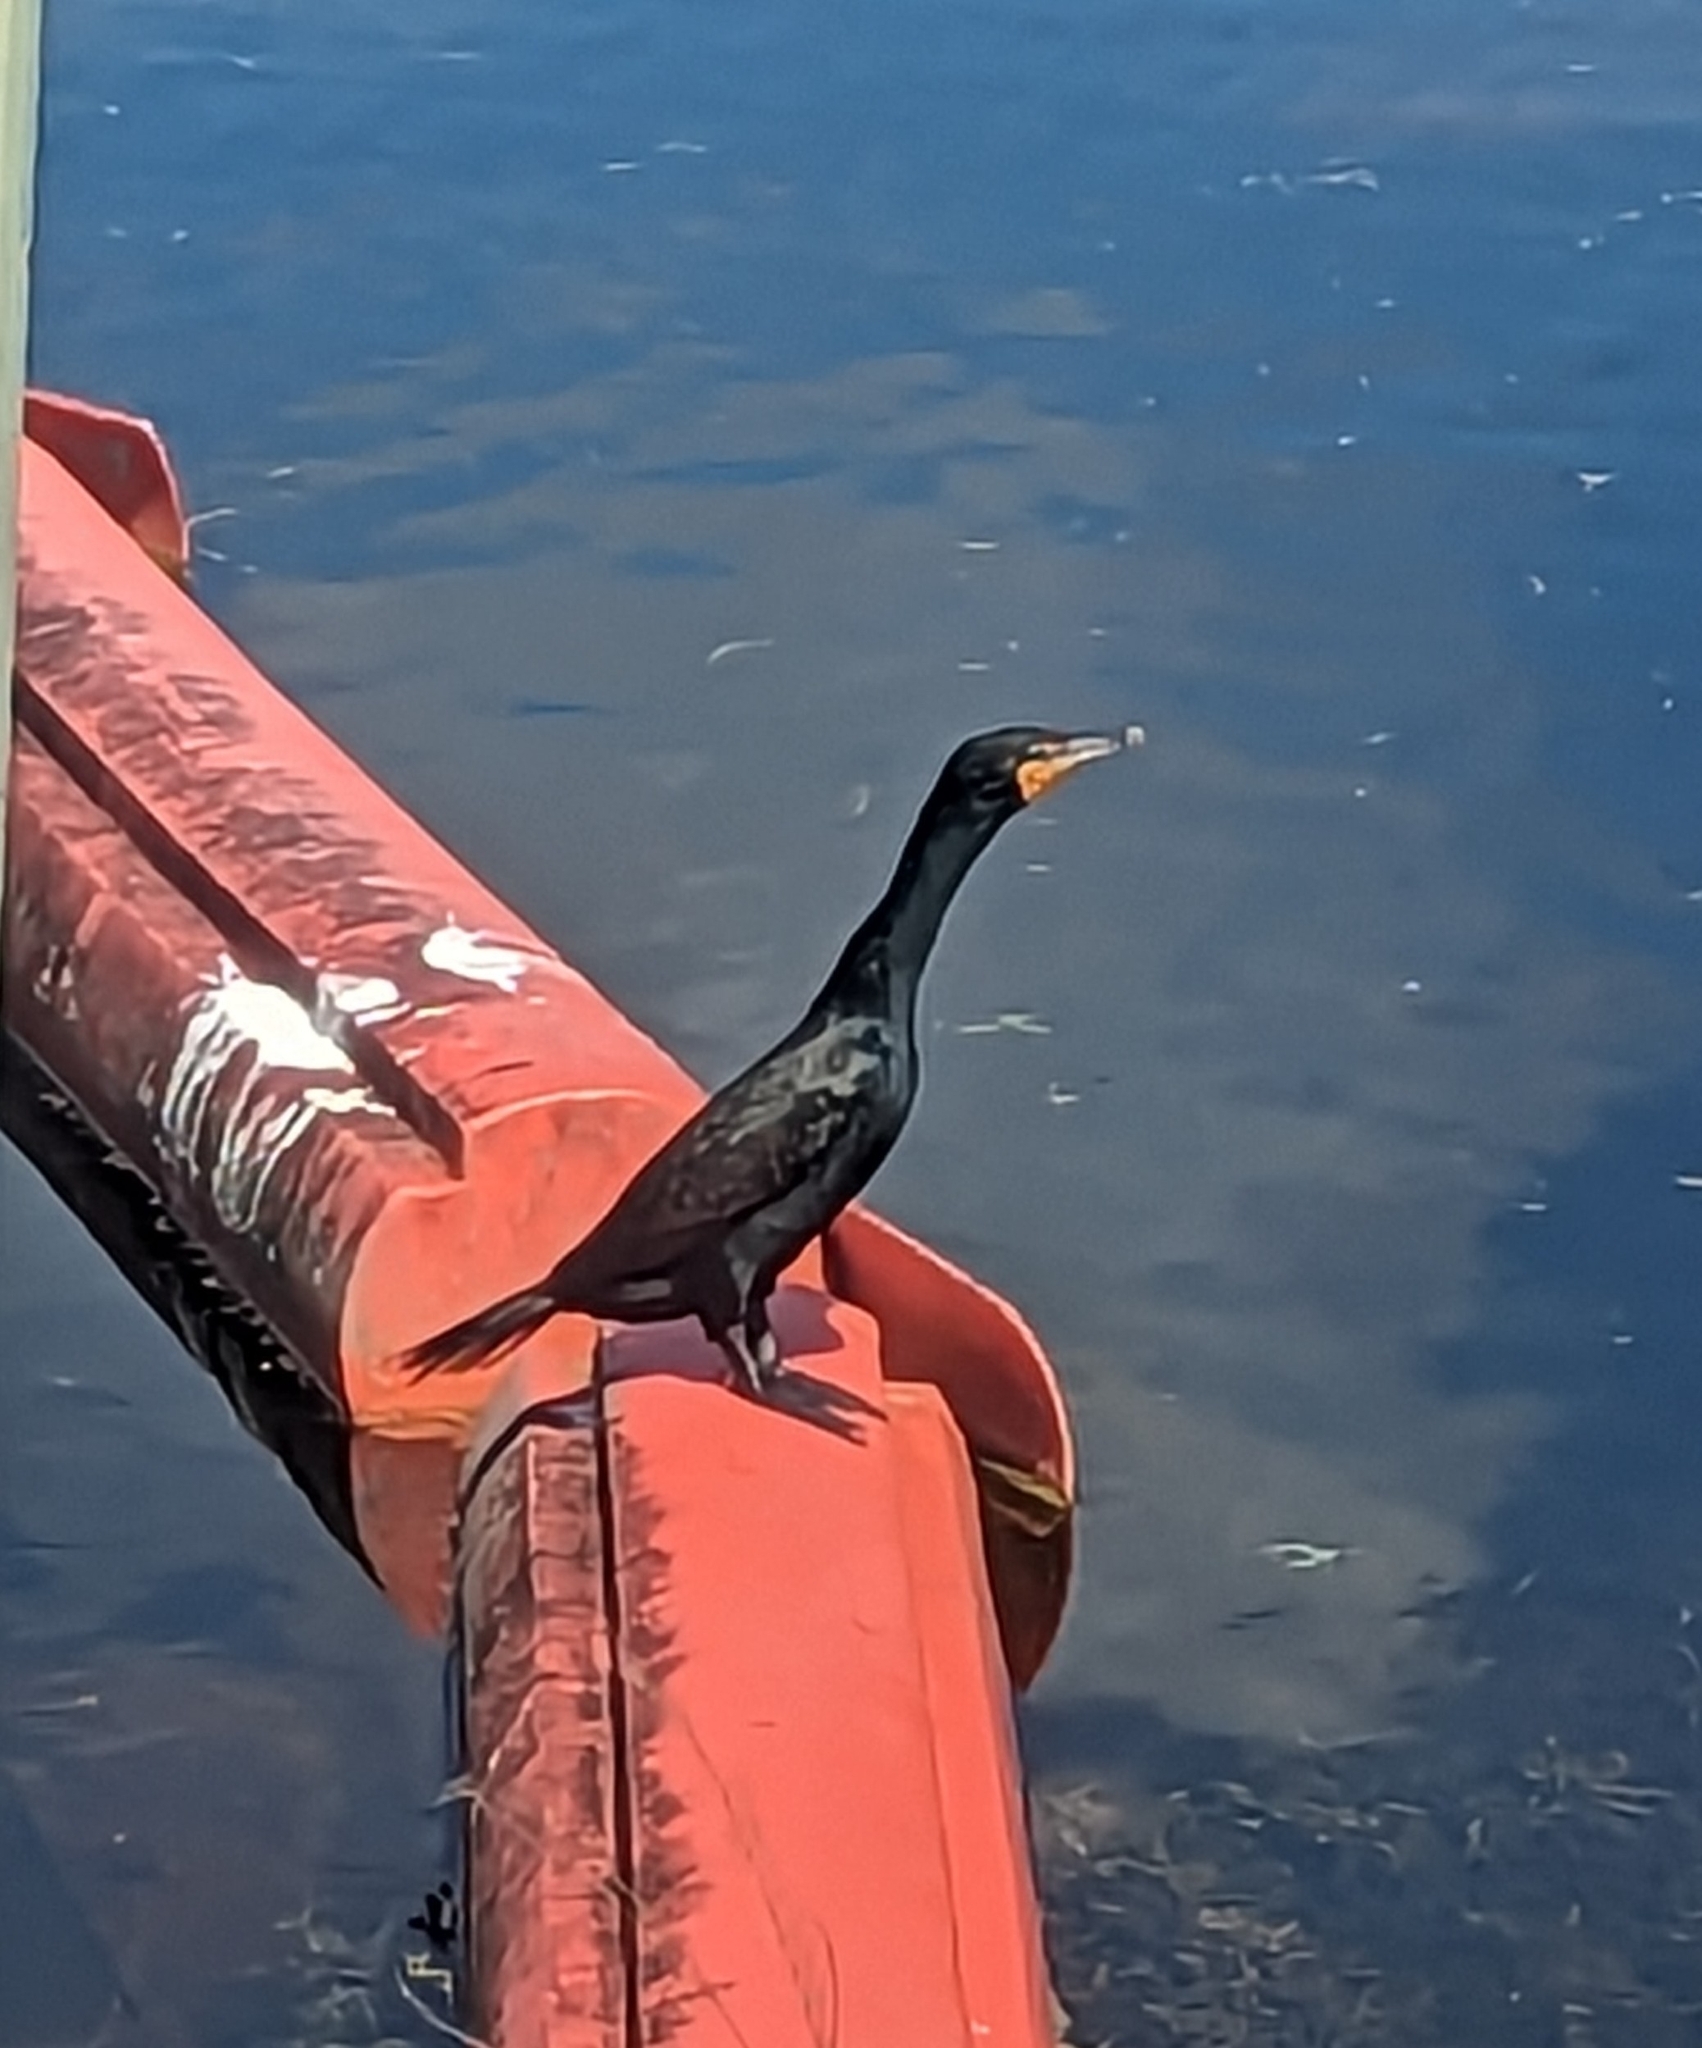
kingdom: Animalia
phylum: Chordata
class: Aves
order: Suliformes
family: Phalacrocoracidae
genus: Phalacrocorax
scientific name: Phalacrocorax auritus
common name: Double-crested cormorant
